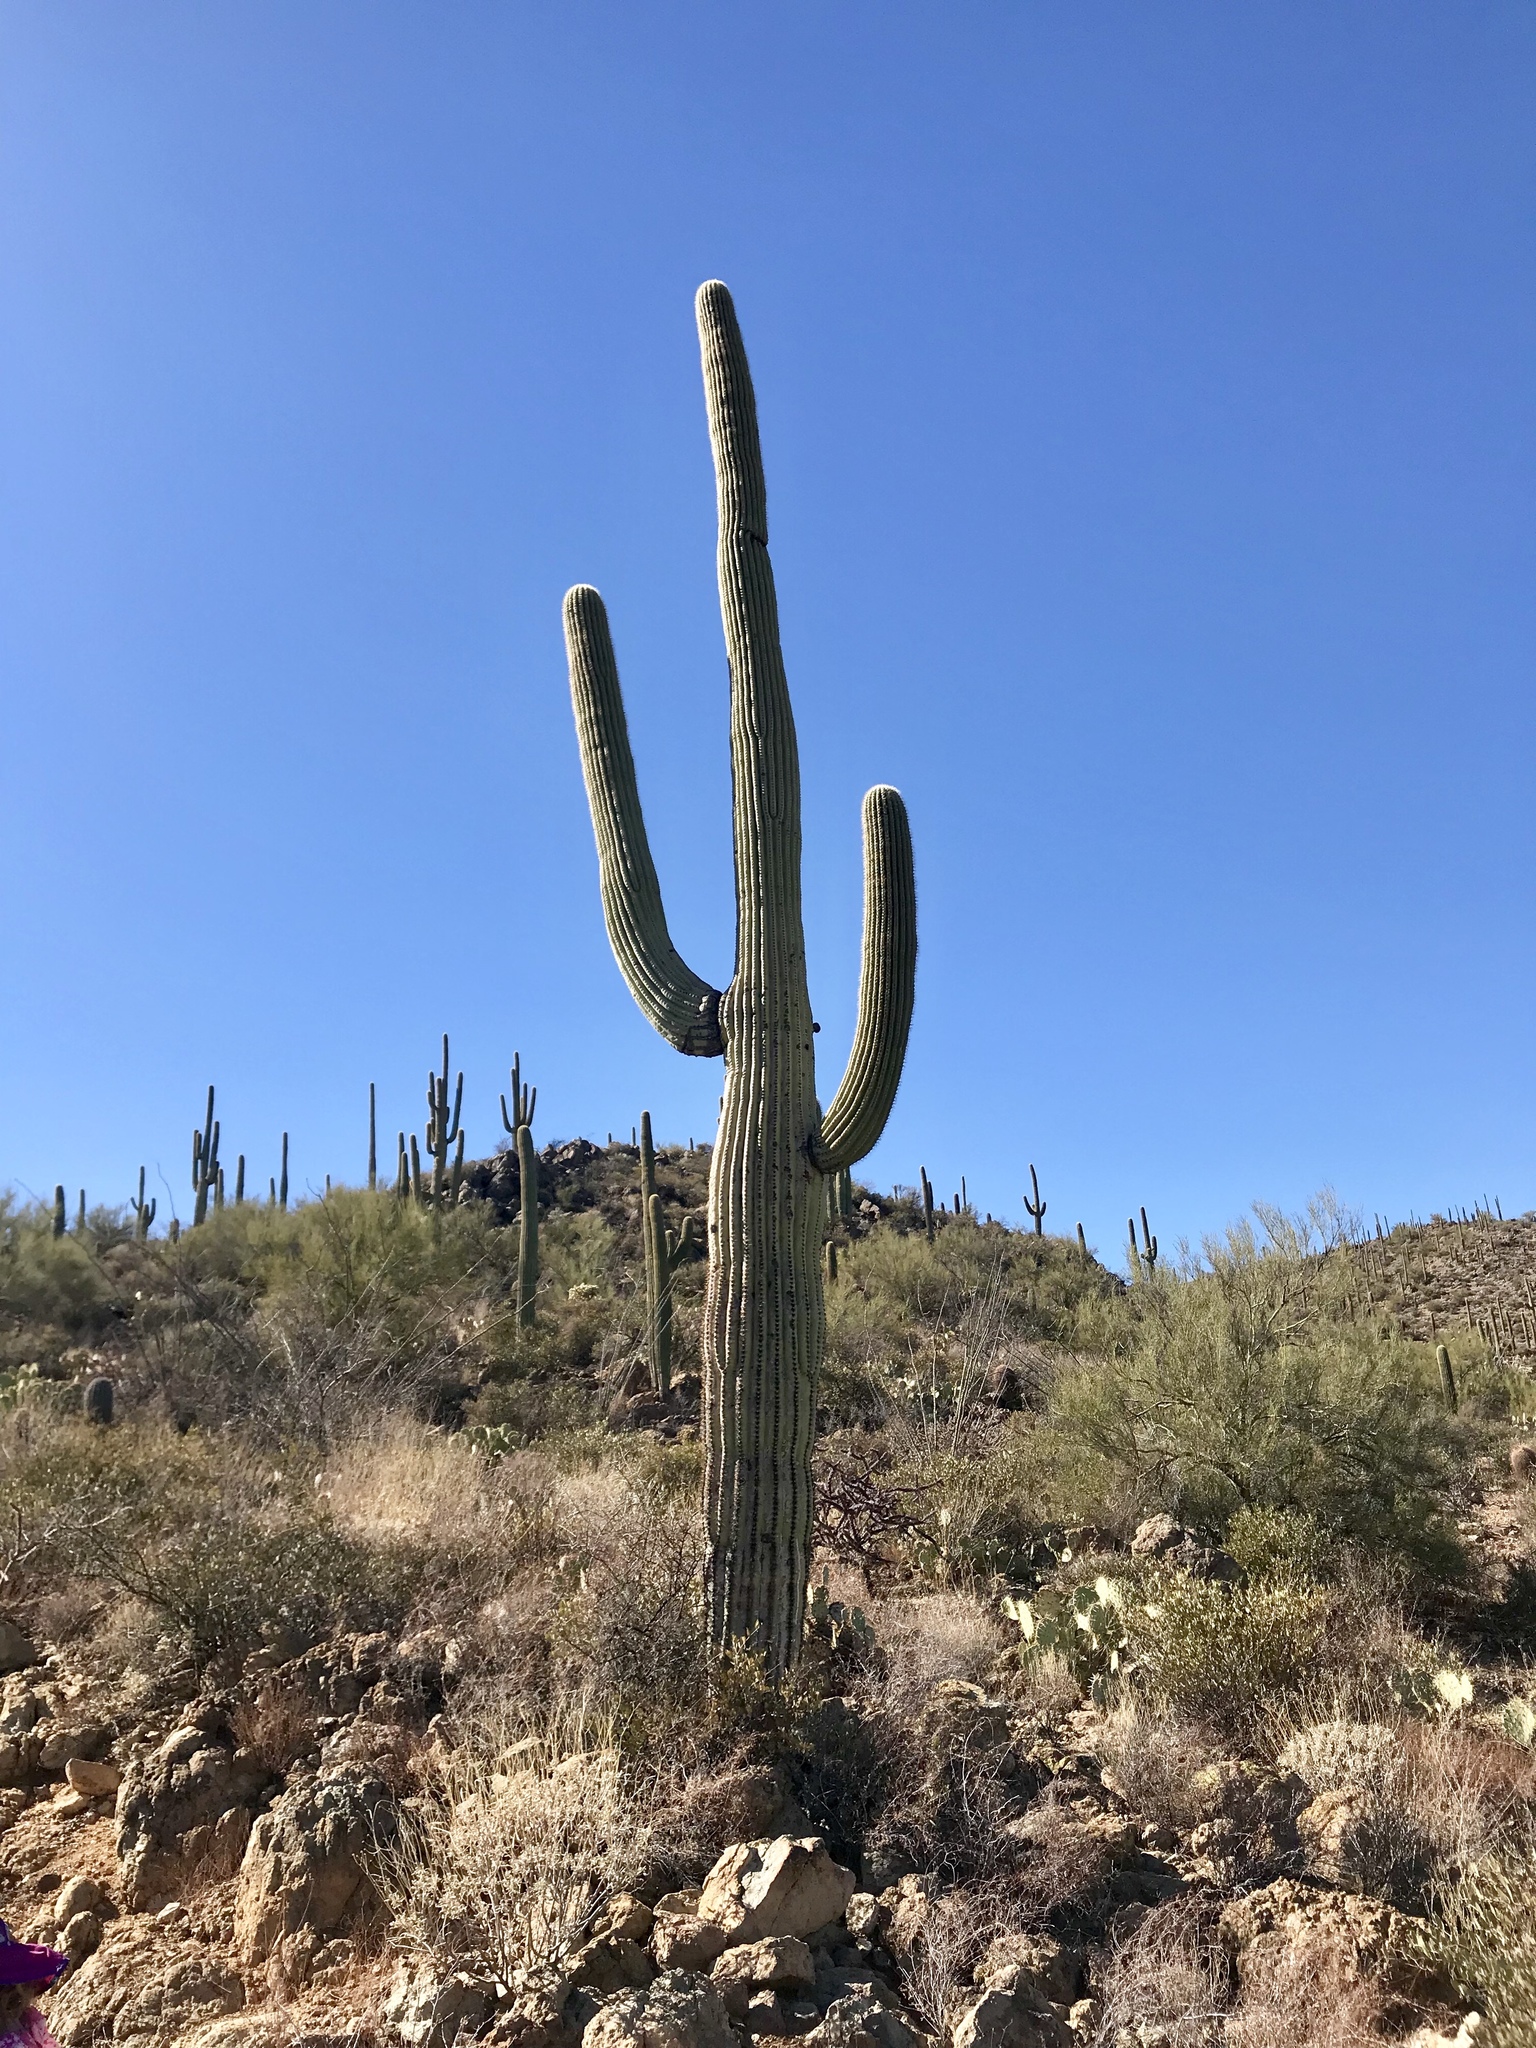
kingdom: Plantae
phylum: Tracheophyta
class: Magnoliopsida
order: Caryophyllales
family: Cactaceae
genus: Carnegiea
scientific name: Carnegiea gigantea
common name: Saguaro
